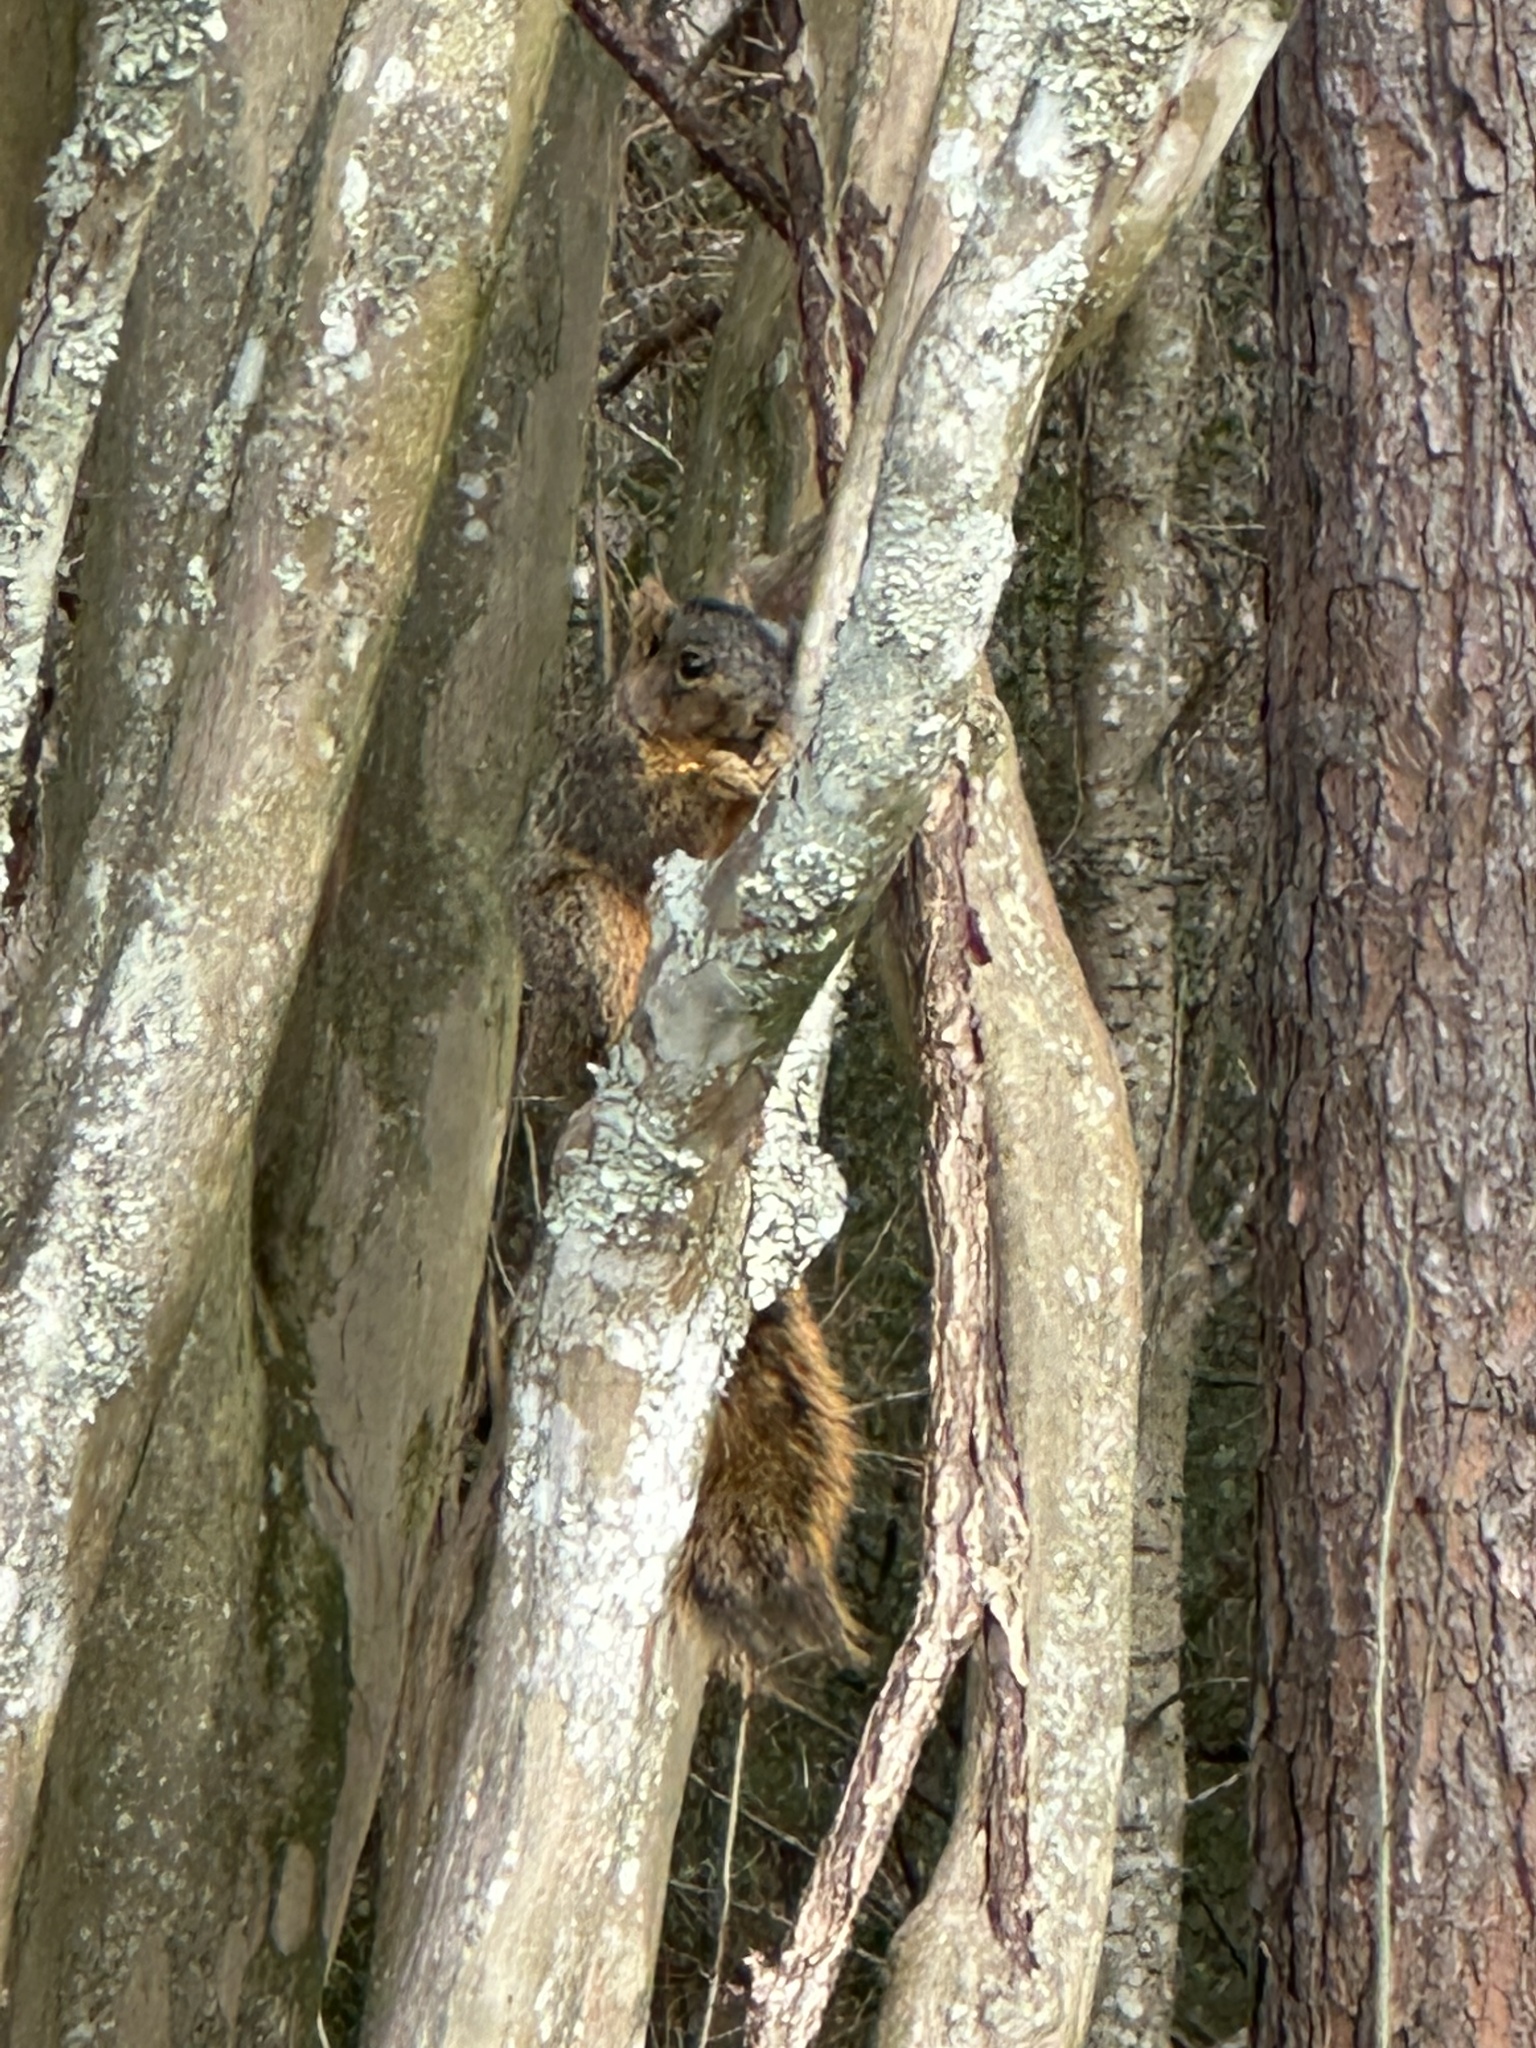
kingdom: Animalia
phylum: Chordata
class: Mammalia
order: Rodentia
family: Sciuridae
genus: Sciurus
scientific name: Sciurus niger
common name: Fox squirrel
